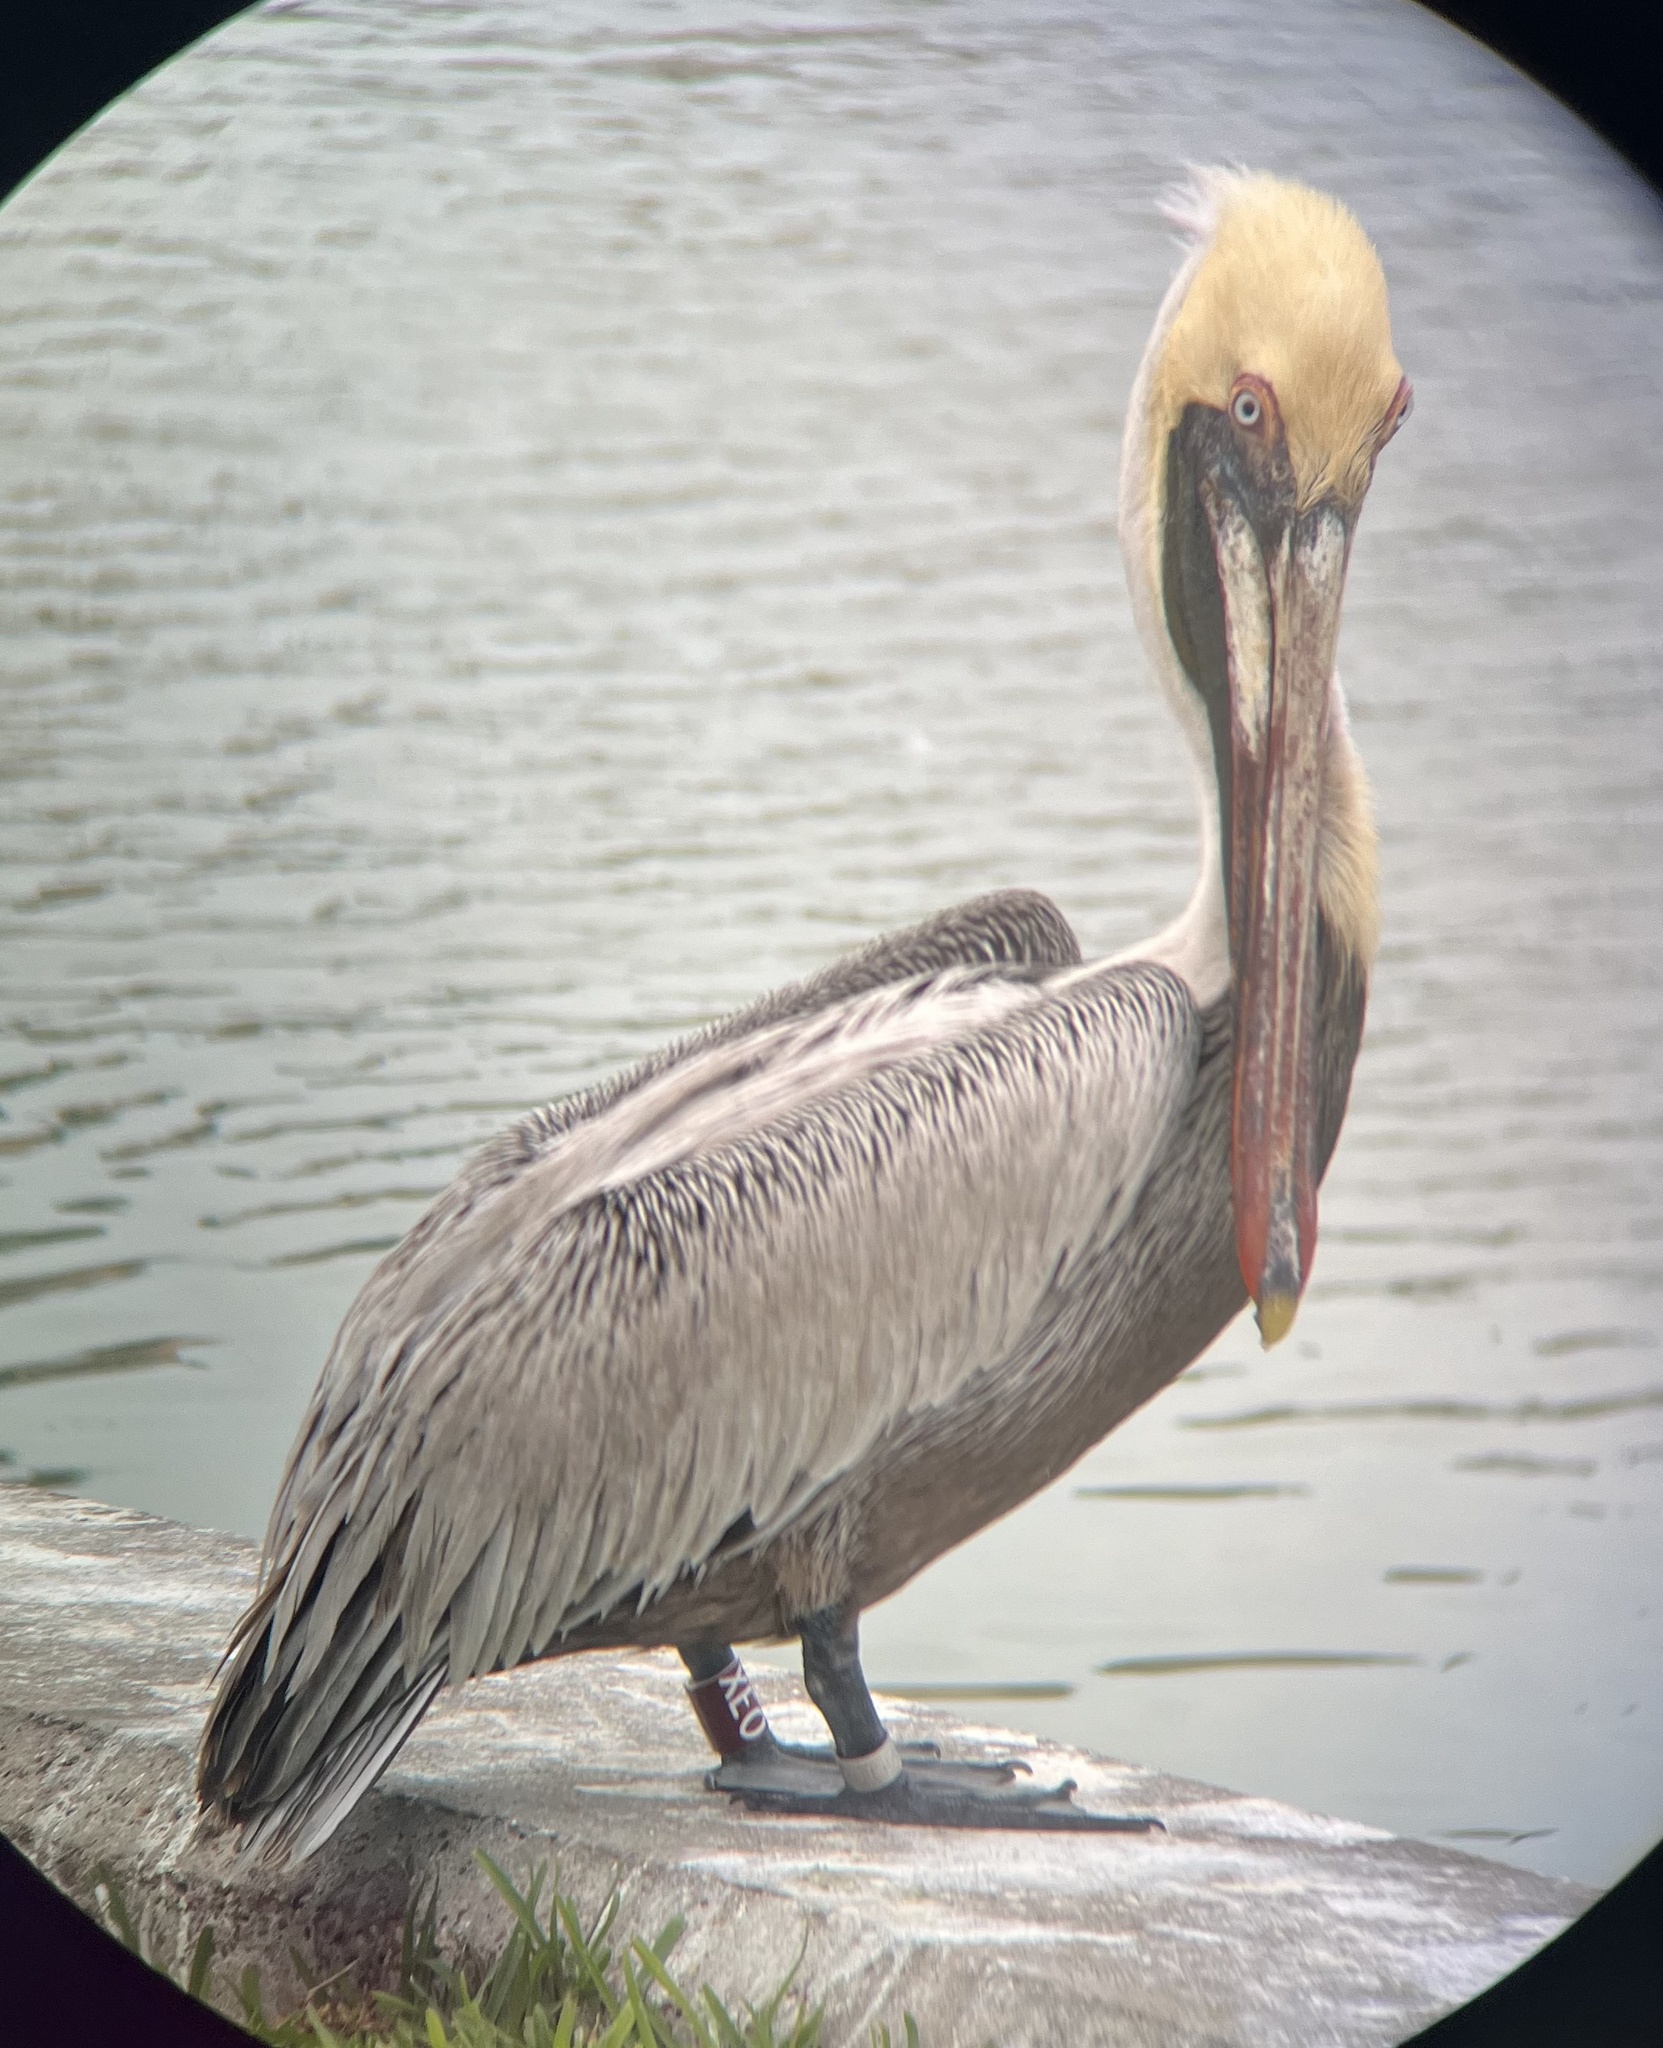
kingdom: Animalia
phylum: Chordata
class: Aves
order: Pelecaniformes
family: Pelecanidae
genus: Pelecanus
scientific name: Pelecanus occidentalis
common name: Brown pelican
